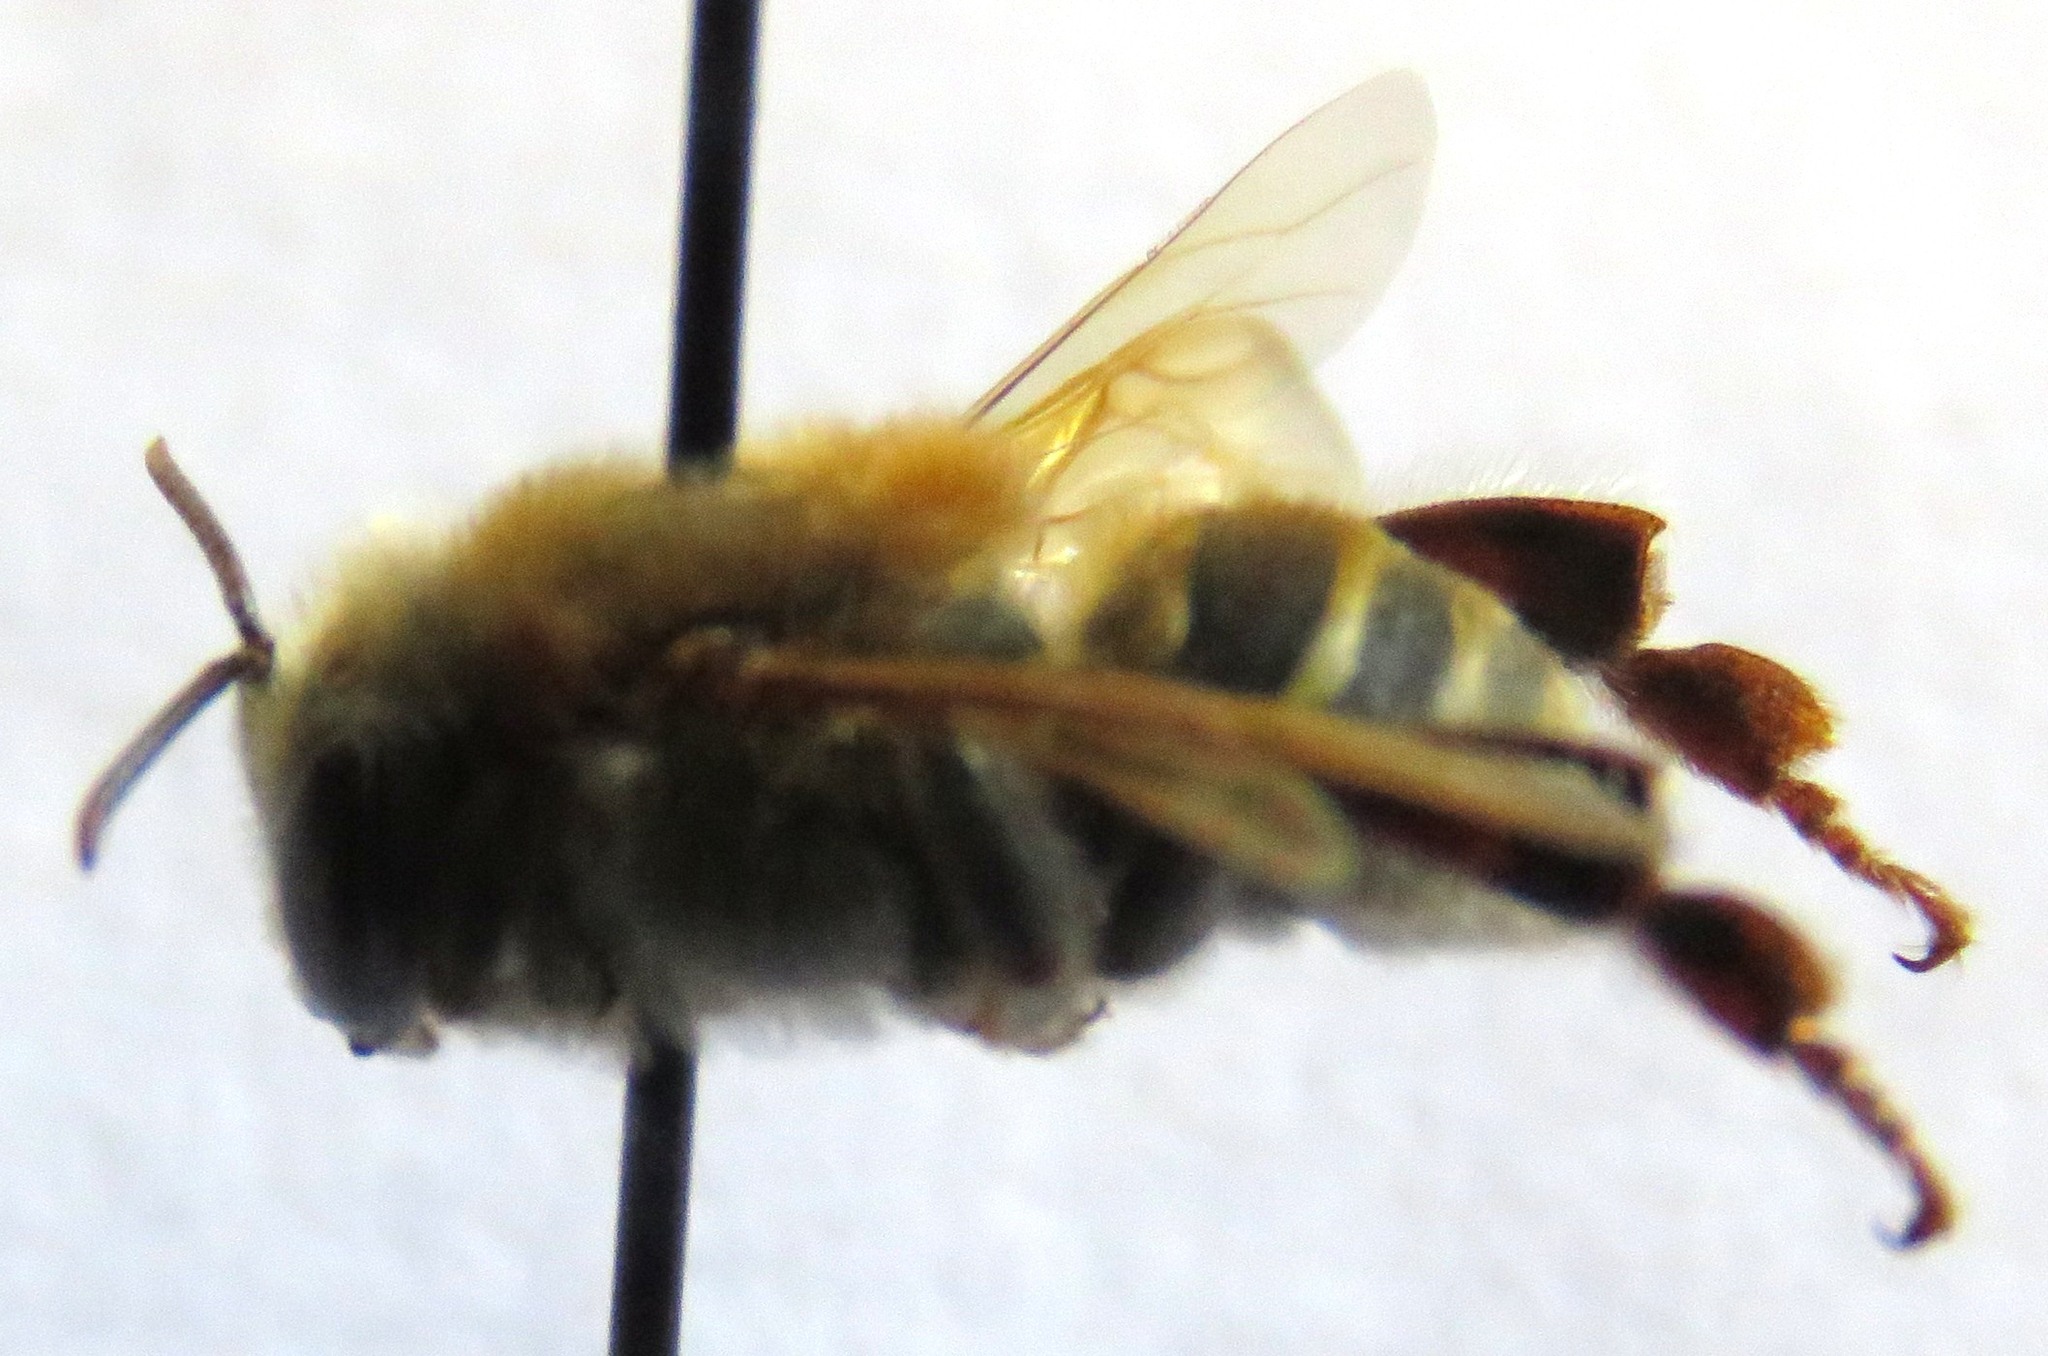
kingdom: Animalia
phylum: Arthropoda
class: Insecta
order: Hymenoptera
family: Apidae
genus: Melipona
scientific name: Melipona beecheii
